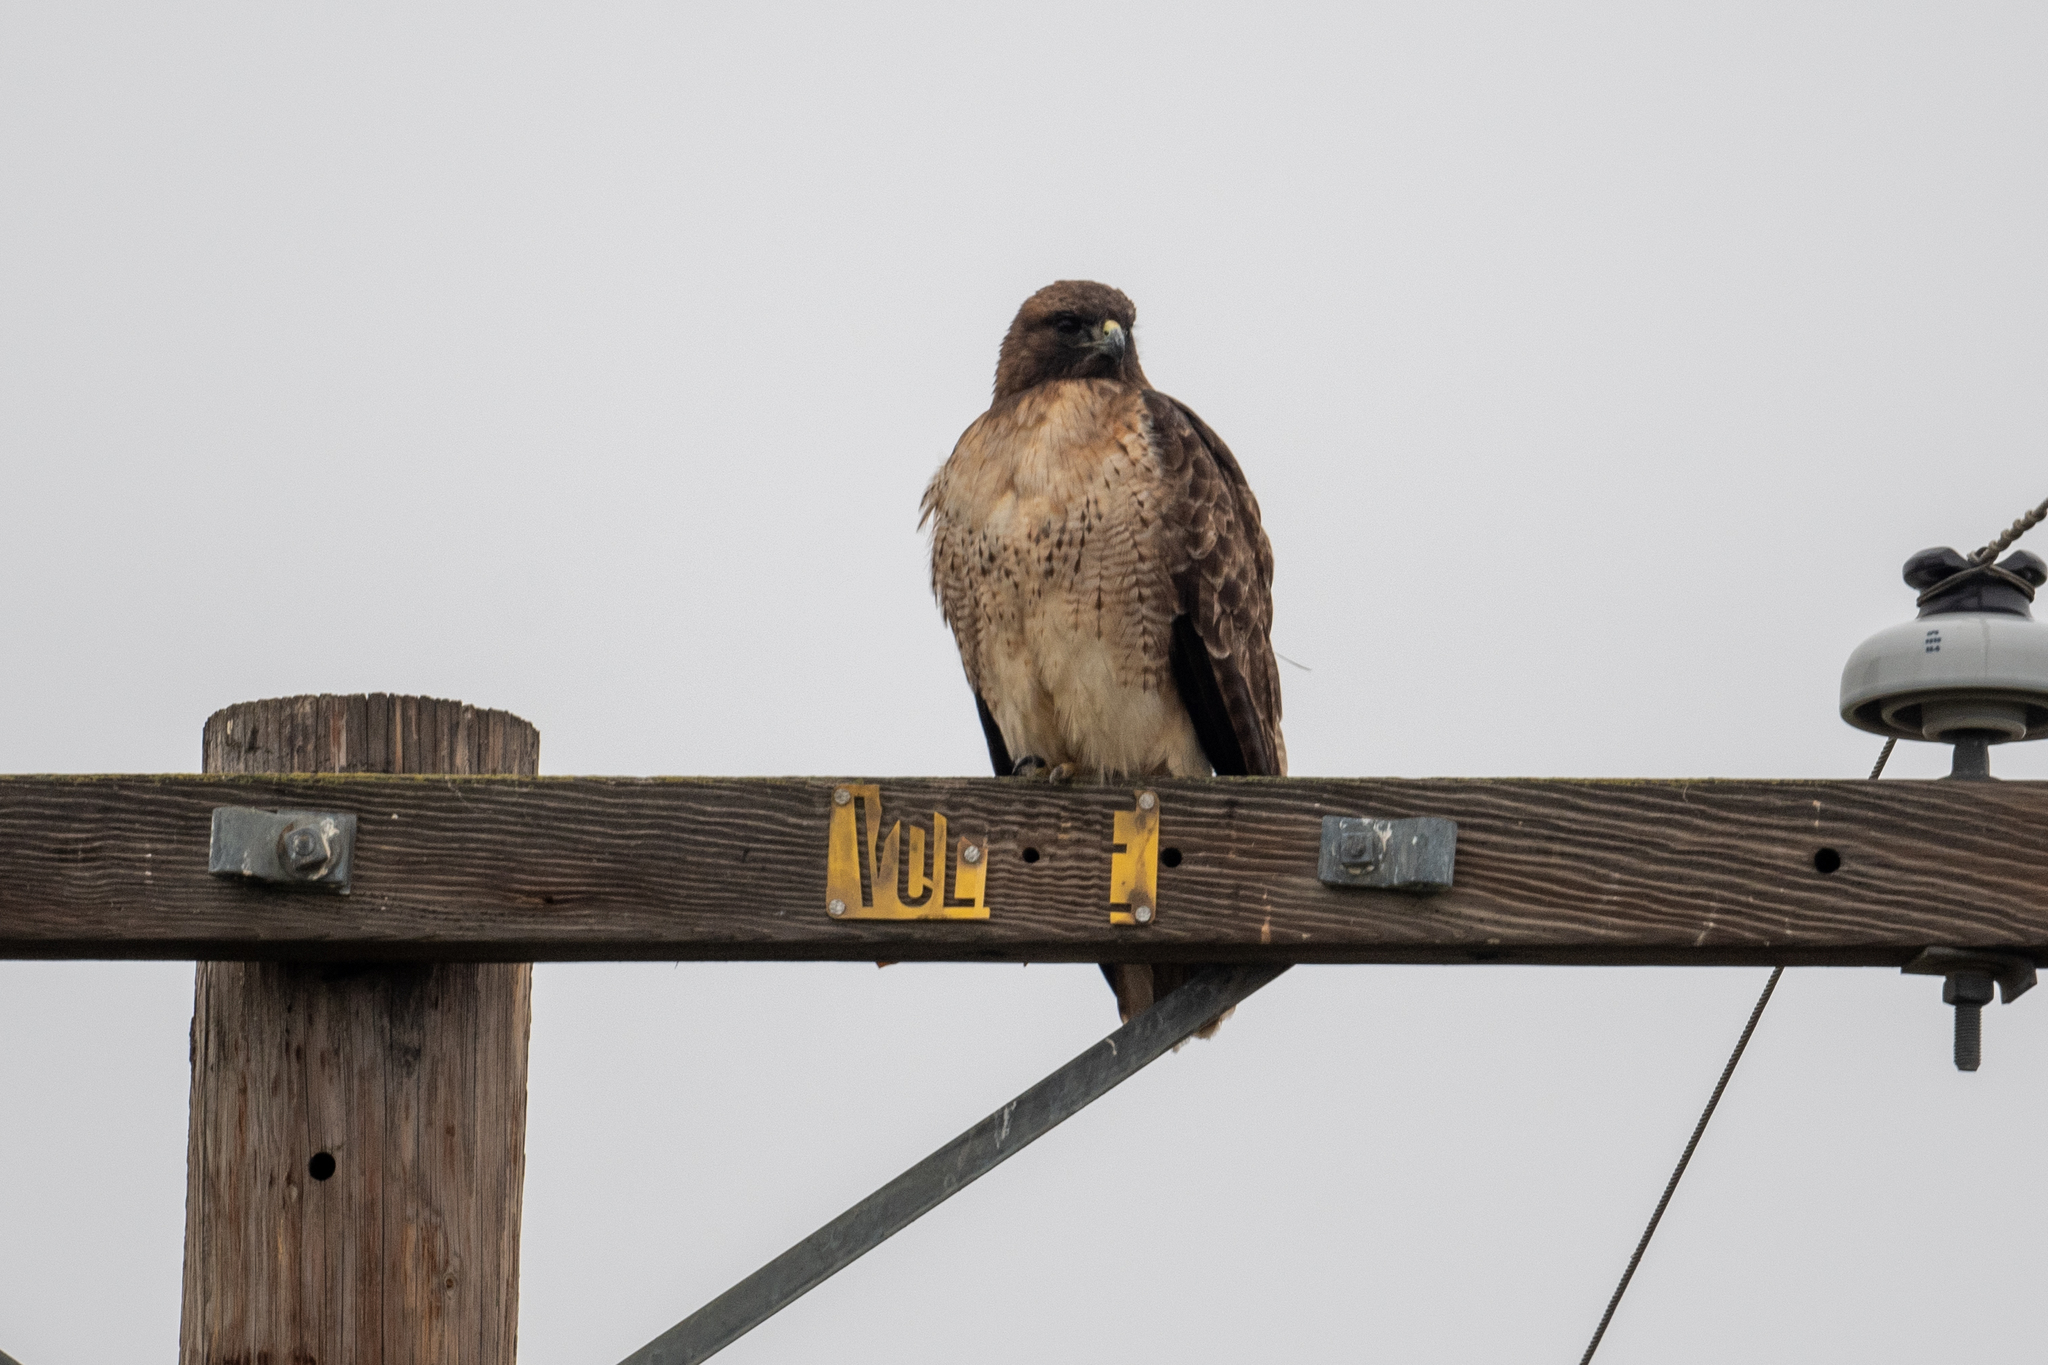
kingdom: Animalia
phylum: Chordata
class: Aves
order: Accipitriformes
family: Accipitridae
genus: Buteo
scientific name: Buteo jamaicensis
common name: Red-tailed hawk
